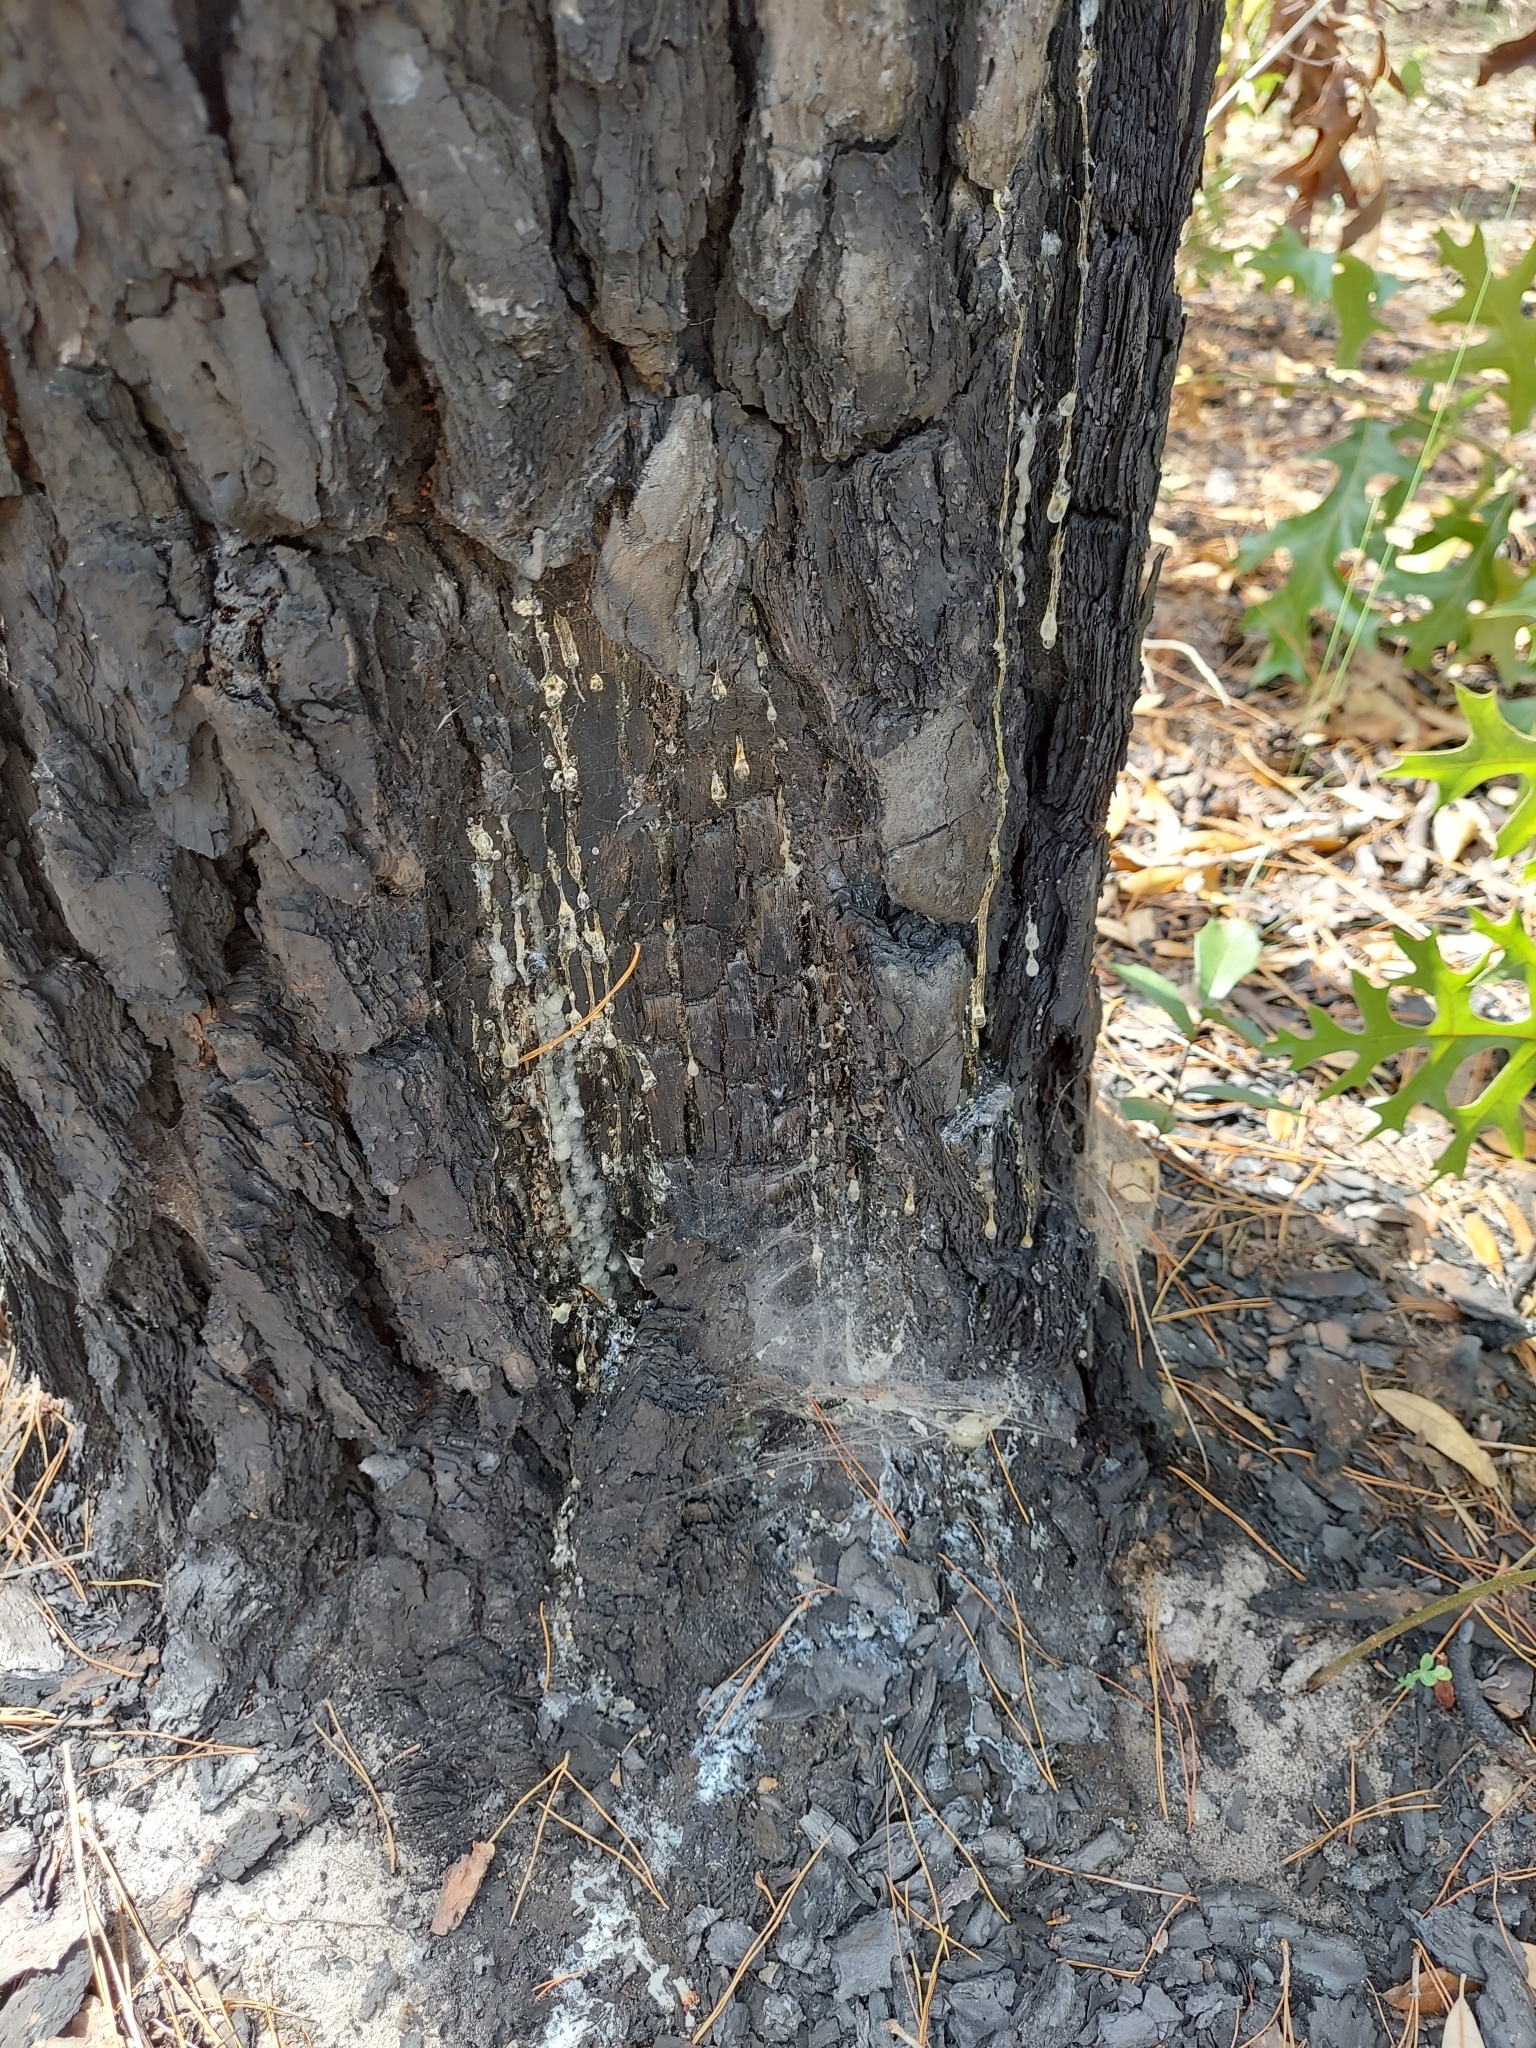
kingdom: Plantae
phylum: Tracheophyta
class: Pinopsida
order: Pinales
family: Pinaceae
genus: Pinus
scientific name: Pinus clausa
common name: Sand pine
